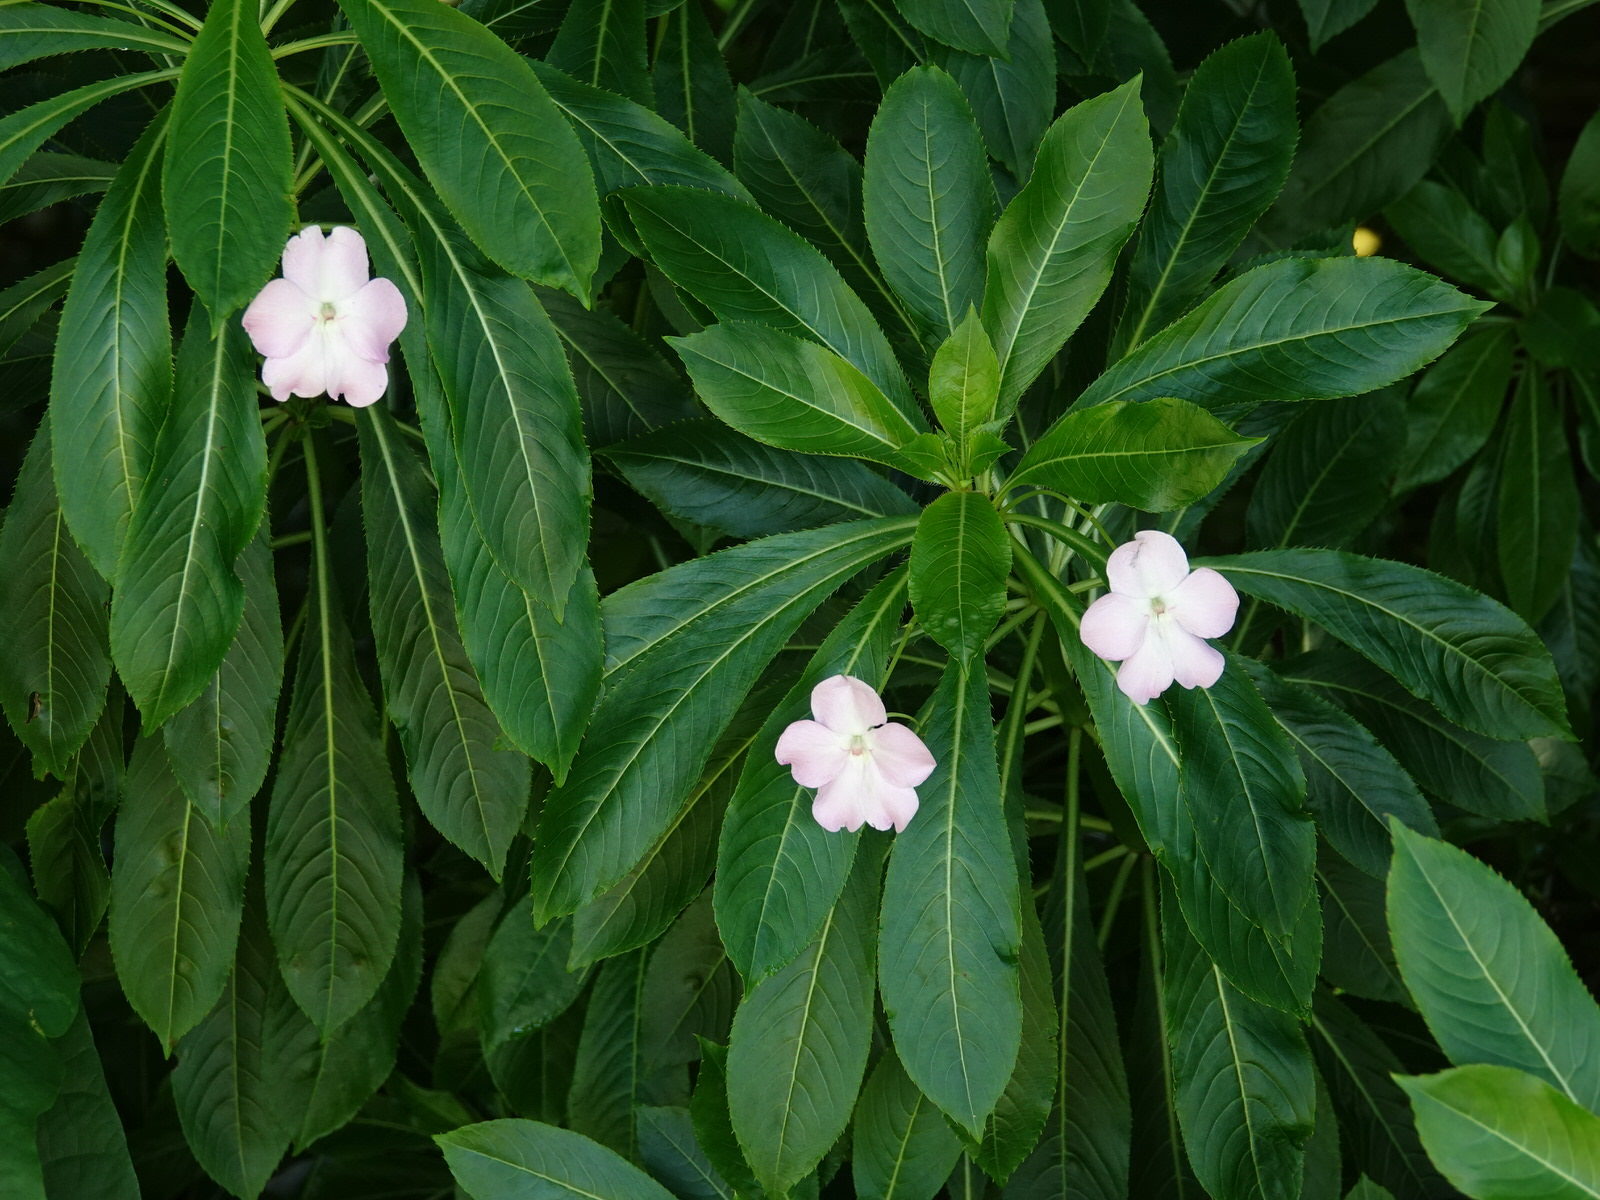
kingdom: Plantae
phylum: Tracheophyta
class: Magnoliopsida
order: Ericales
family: Balsaminaceae
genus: Impatiens
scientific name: Impatiens sodenii
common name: Oliver's touch-me-not
